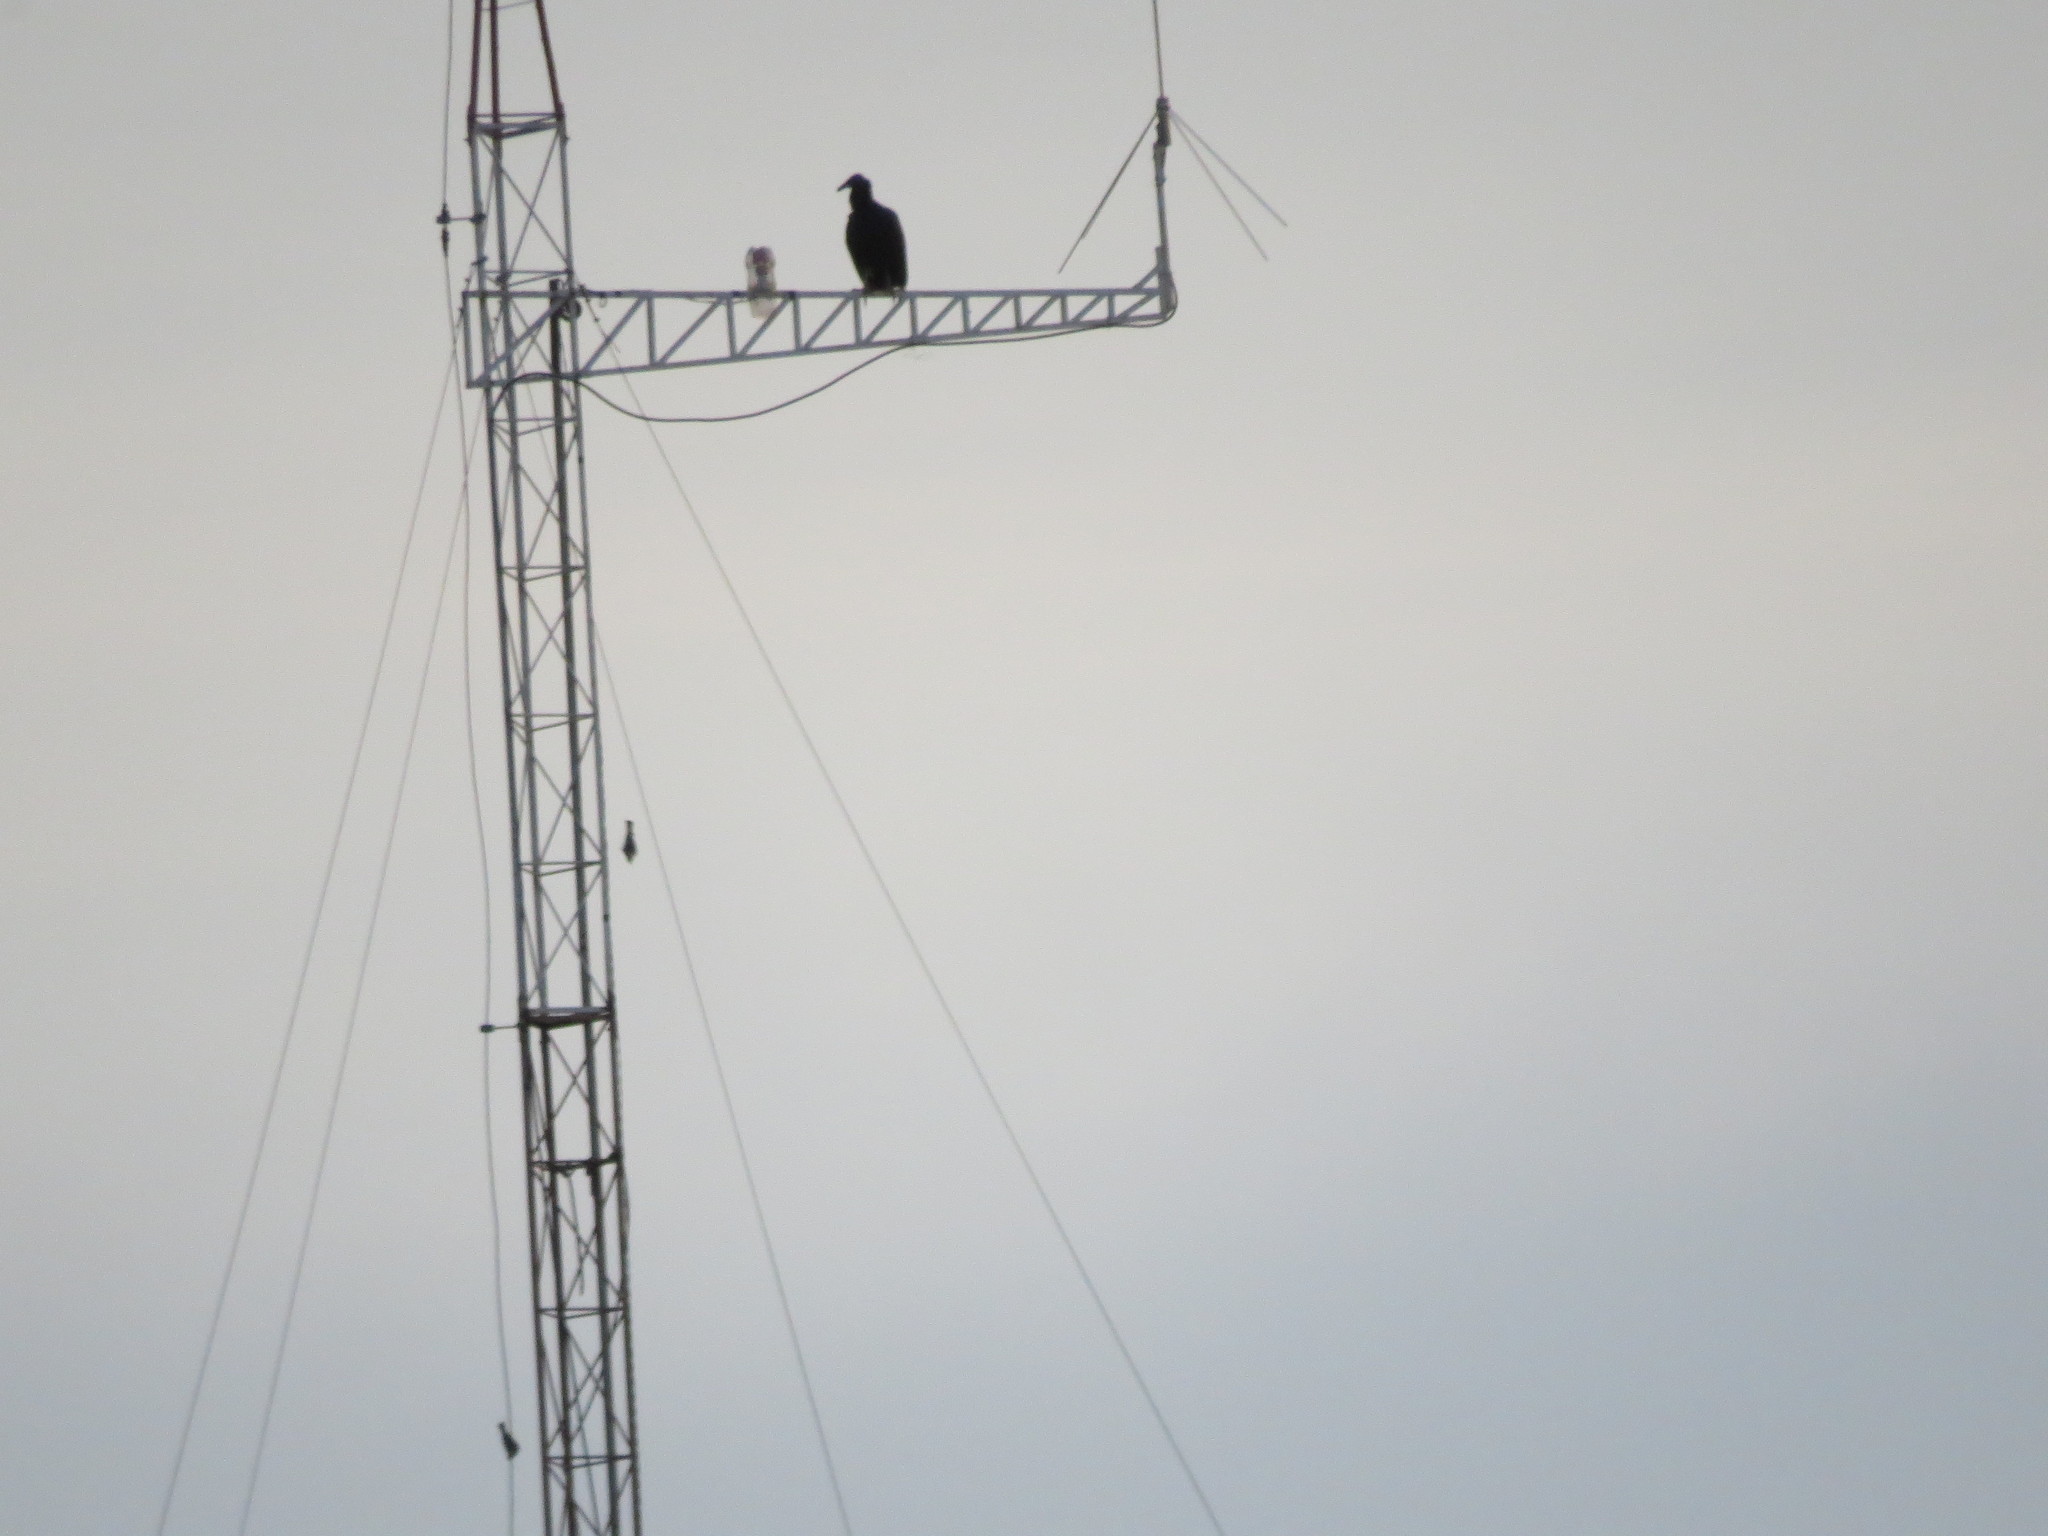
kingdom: Animalia
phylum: Chordata
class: Aves
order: Accipitriformes
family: Cathartidae
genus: Coragyps
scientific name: Coragyps atratus
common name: Black vulture
